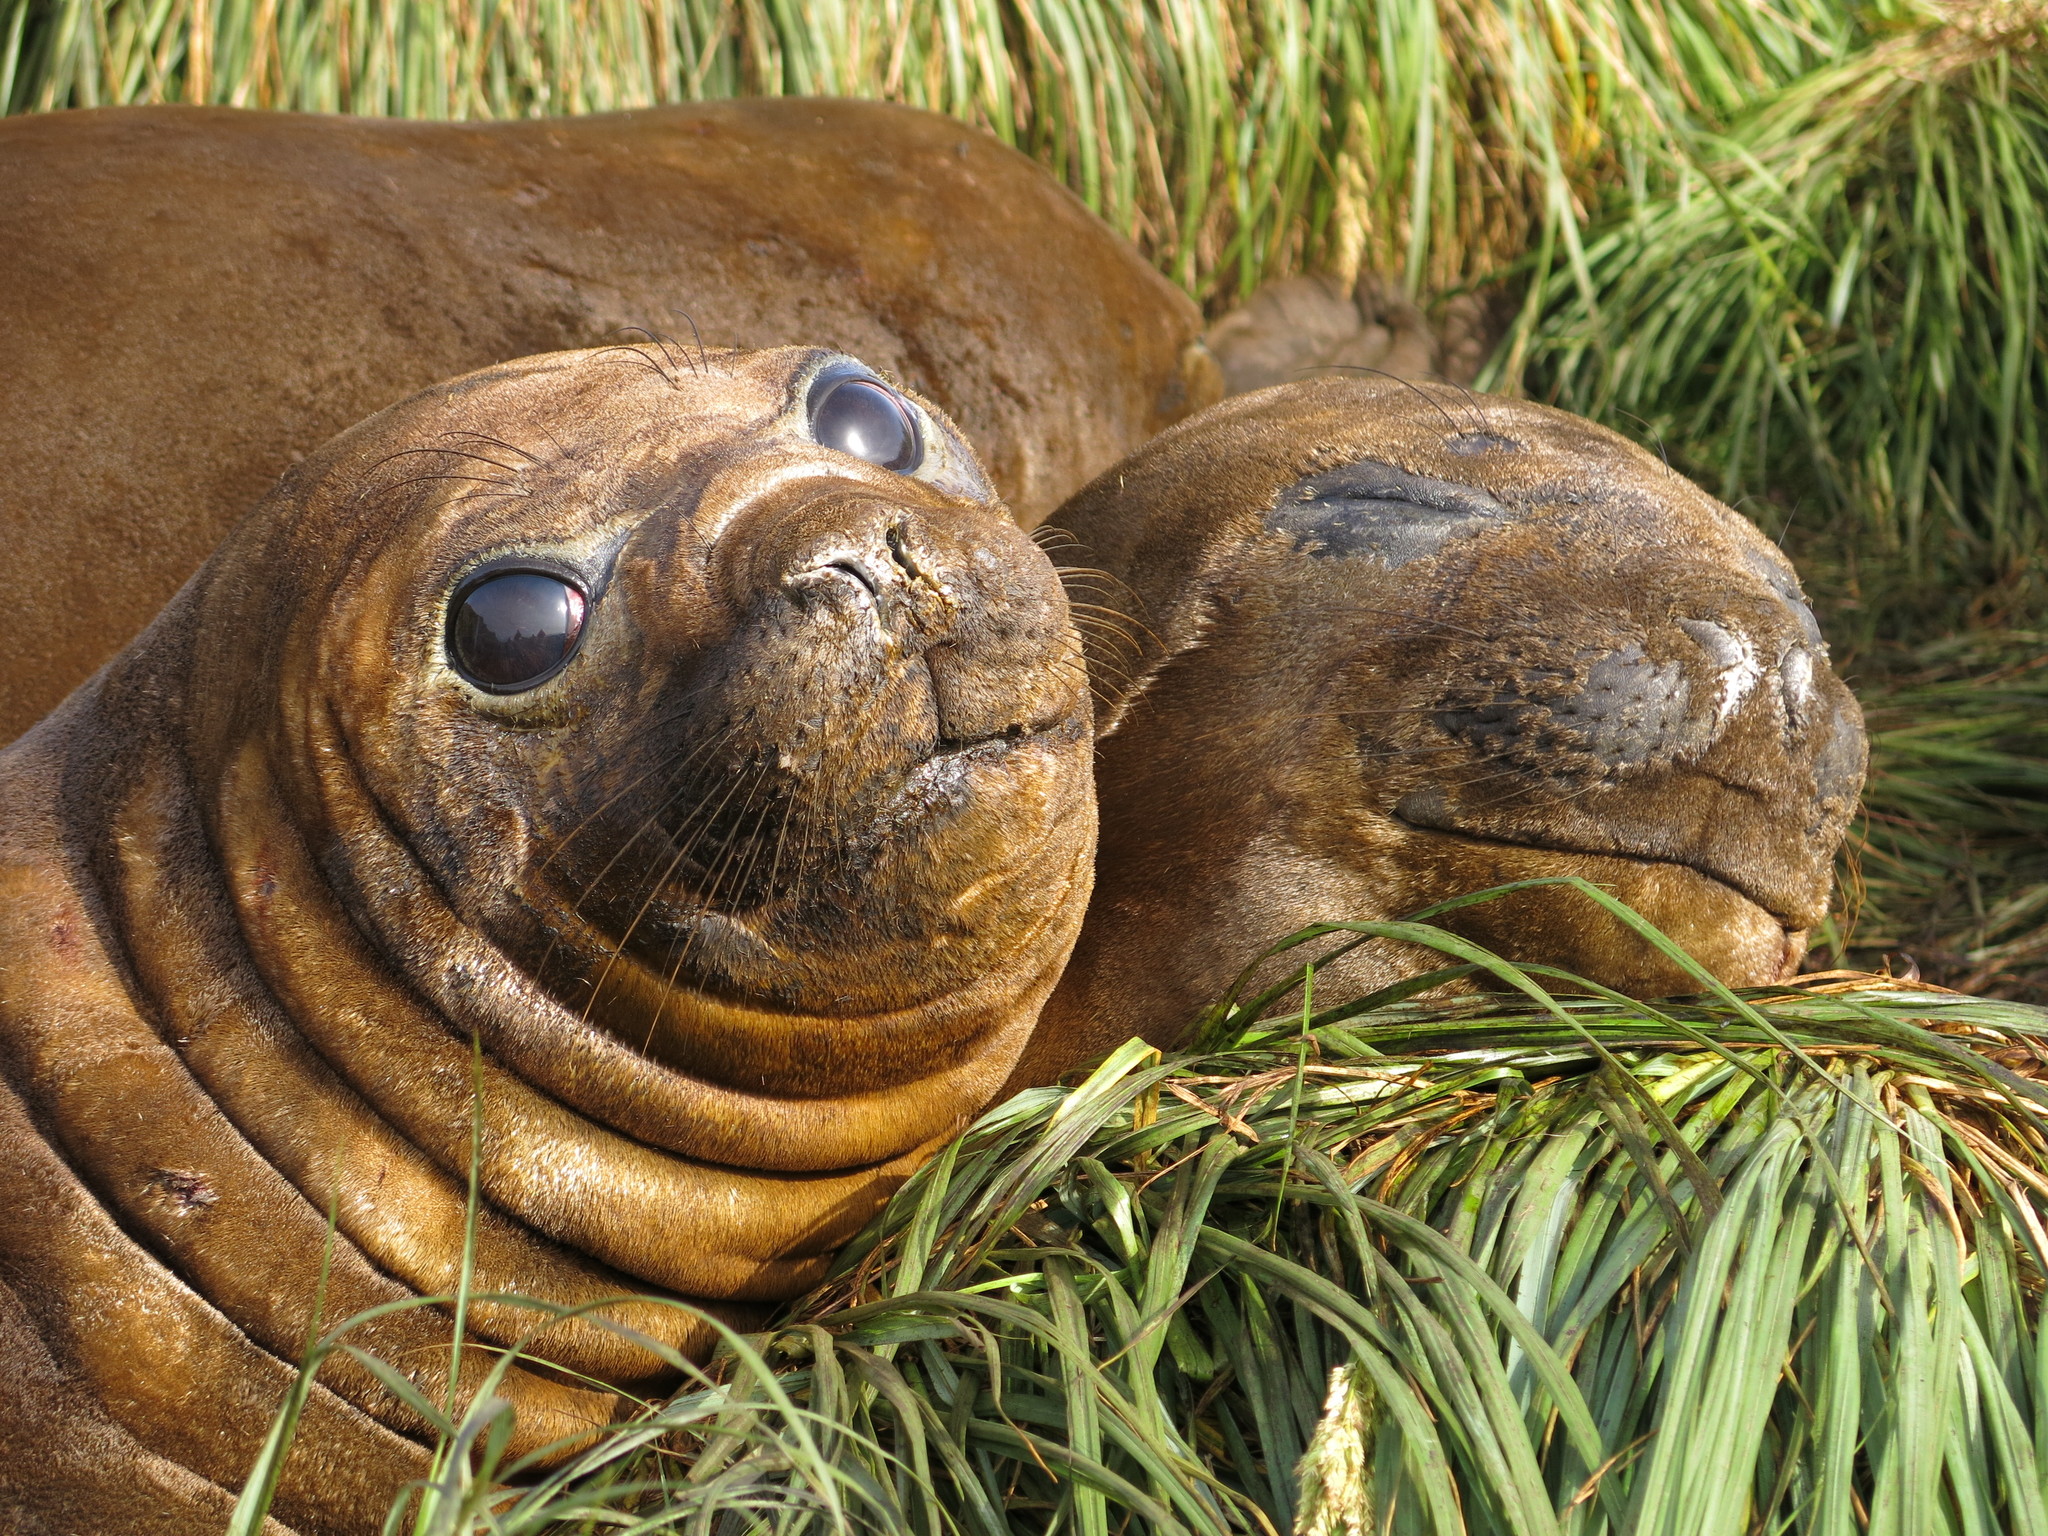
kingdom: Animalia
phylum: Chordata
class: Mammalia
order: Carnivora
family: Phocidae
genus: Mirounga
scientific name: Mirounga leonina
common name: Southern elephant seal
